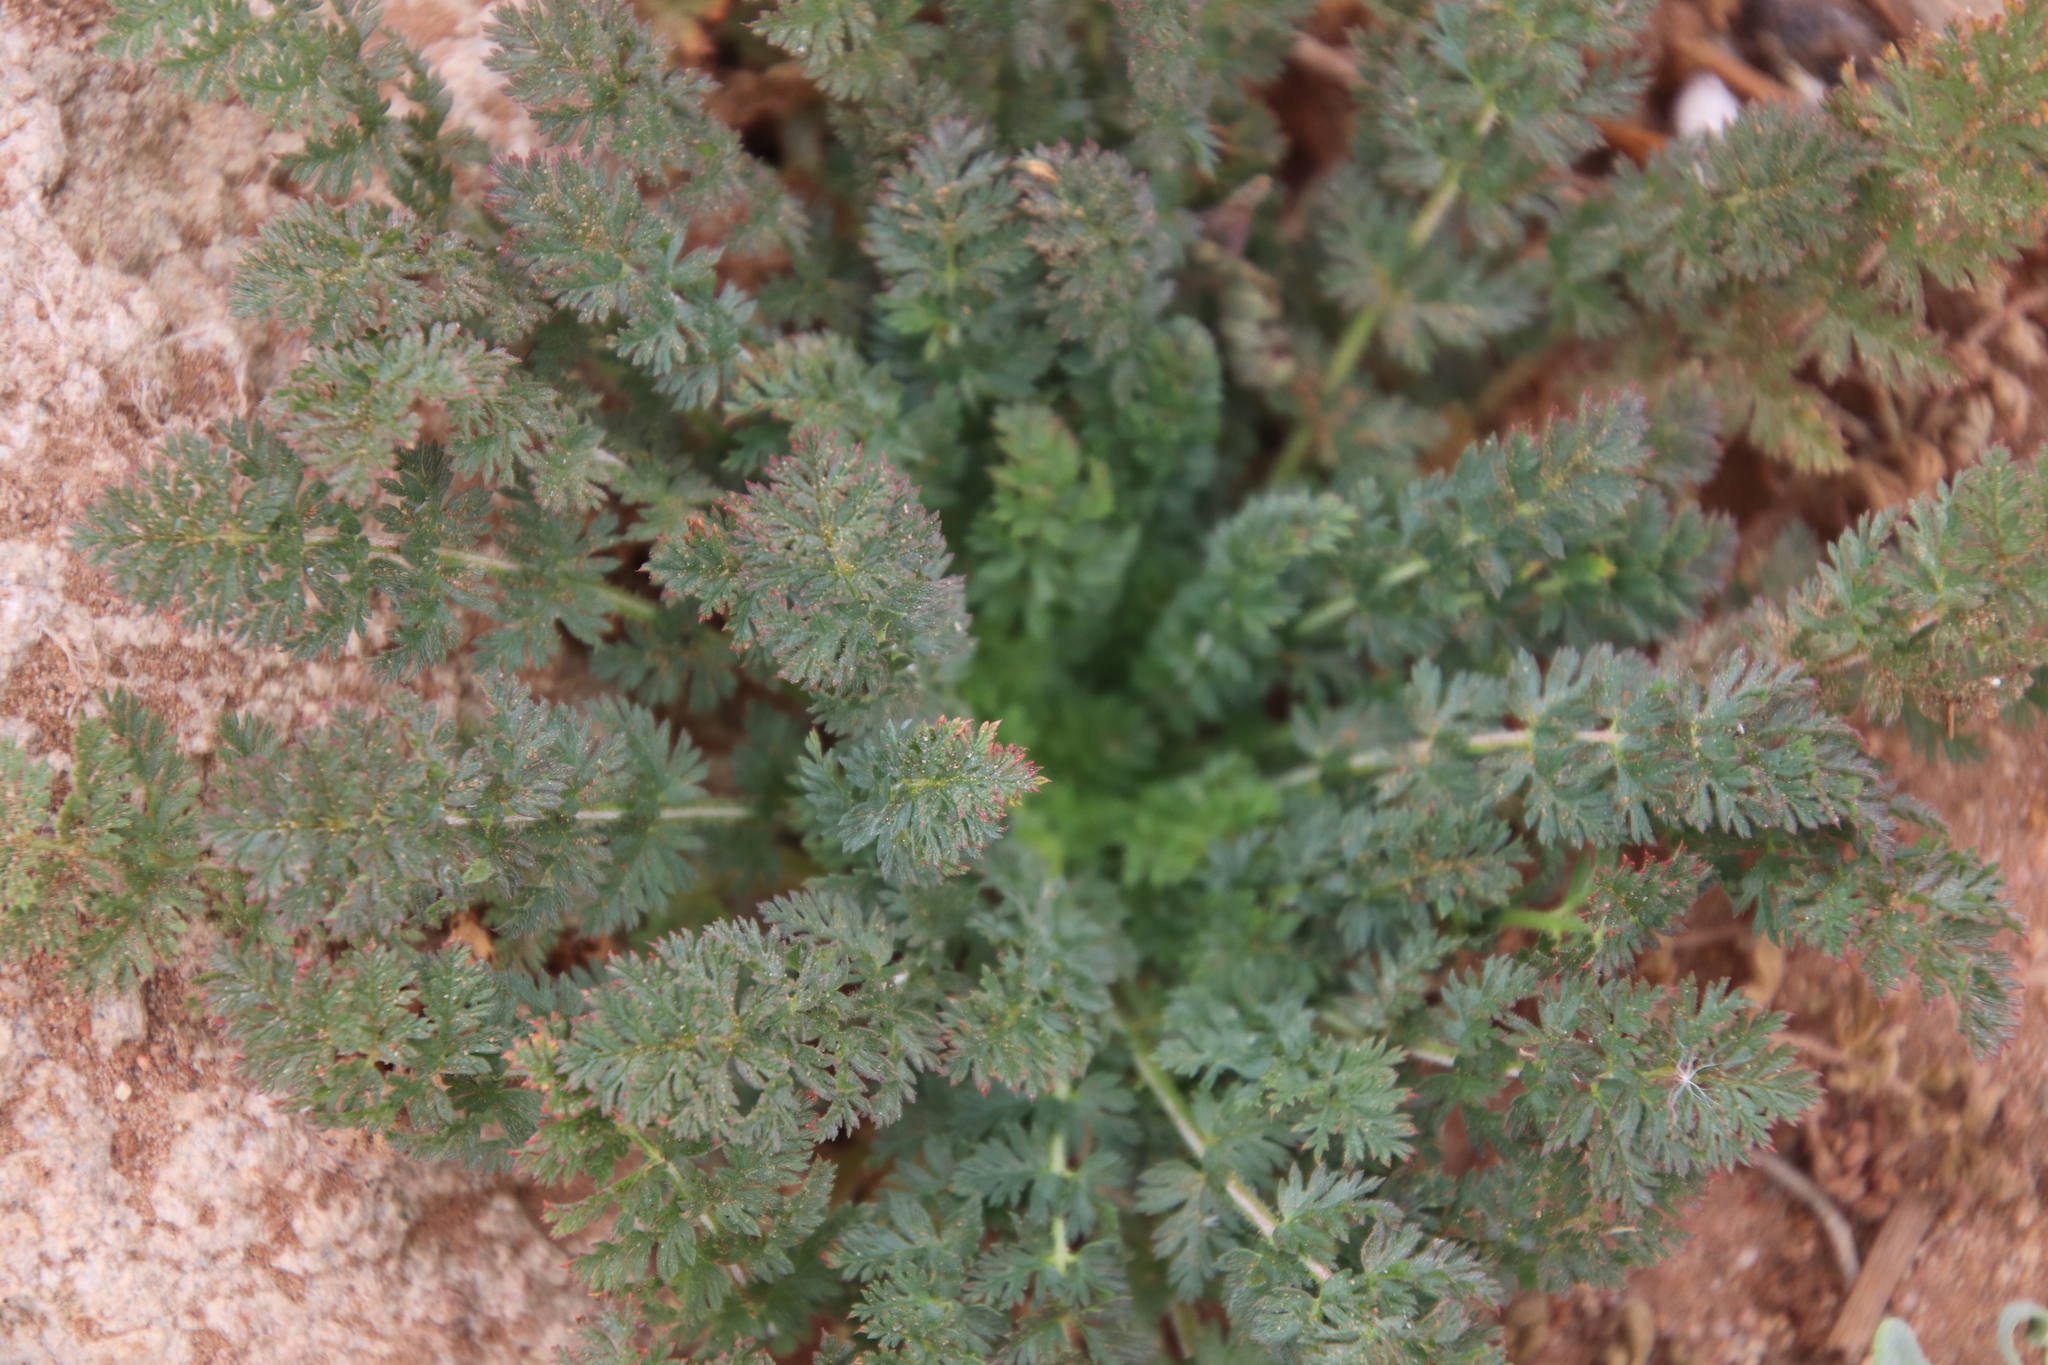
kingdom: Plantae
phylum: Tracheophyta
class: Magnoliopsida
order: Geraniales
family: Geraniaceae
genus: Erodium
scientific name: Erodium cicutarium
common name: Common stork's-bill
